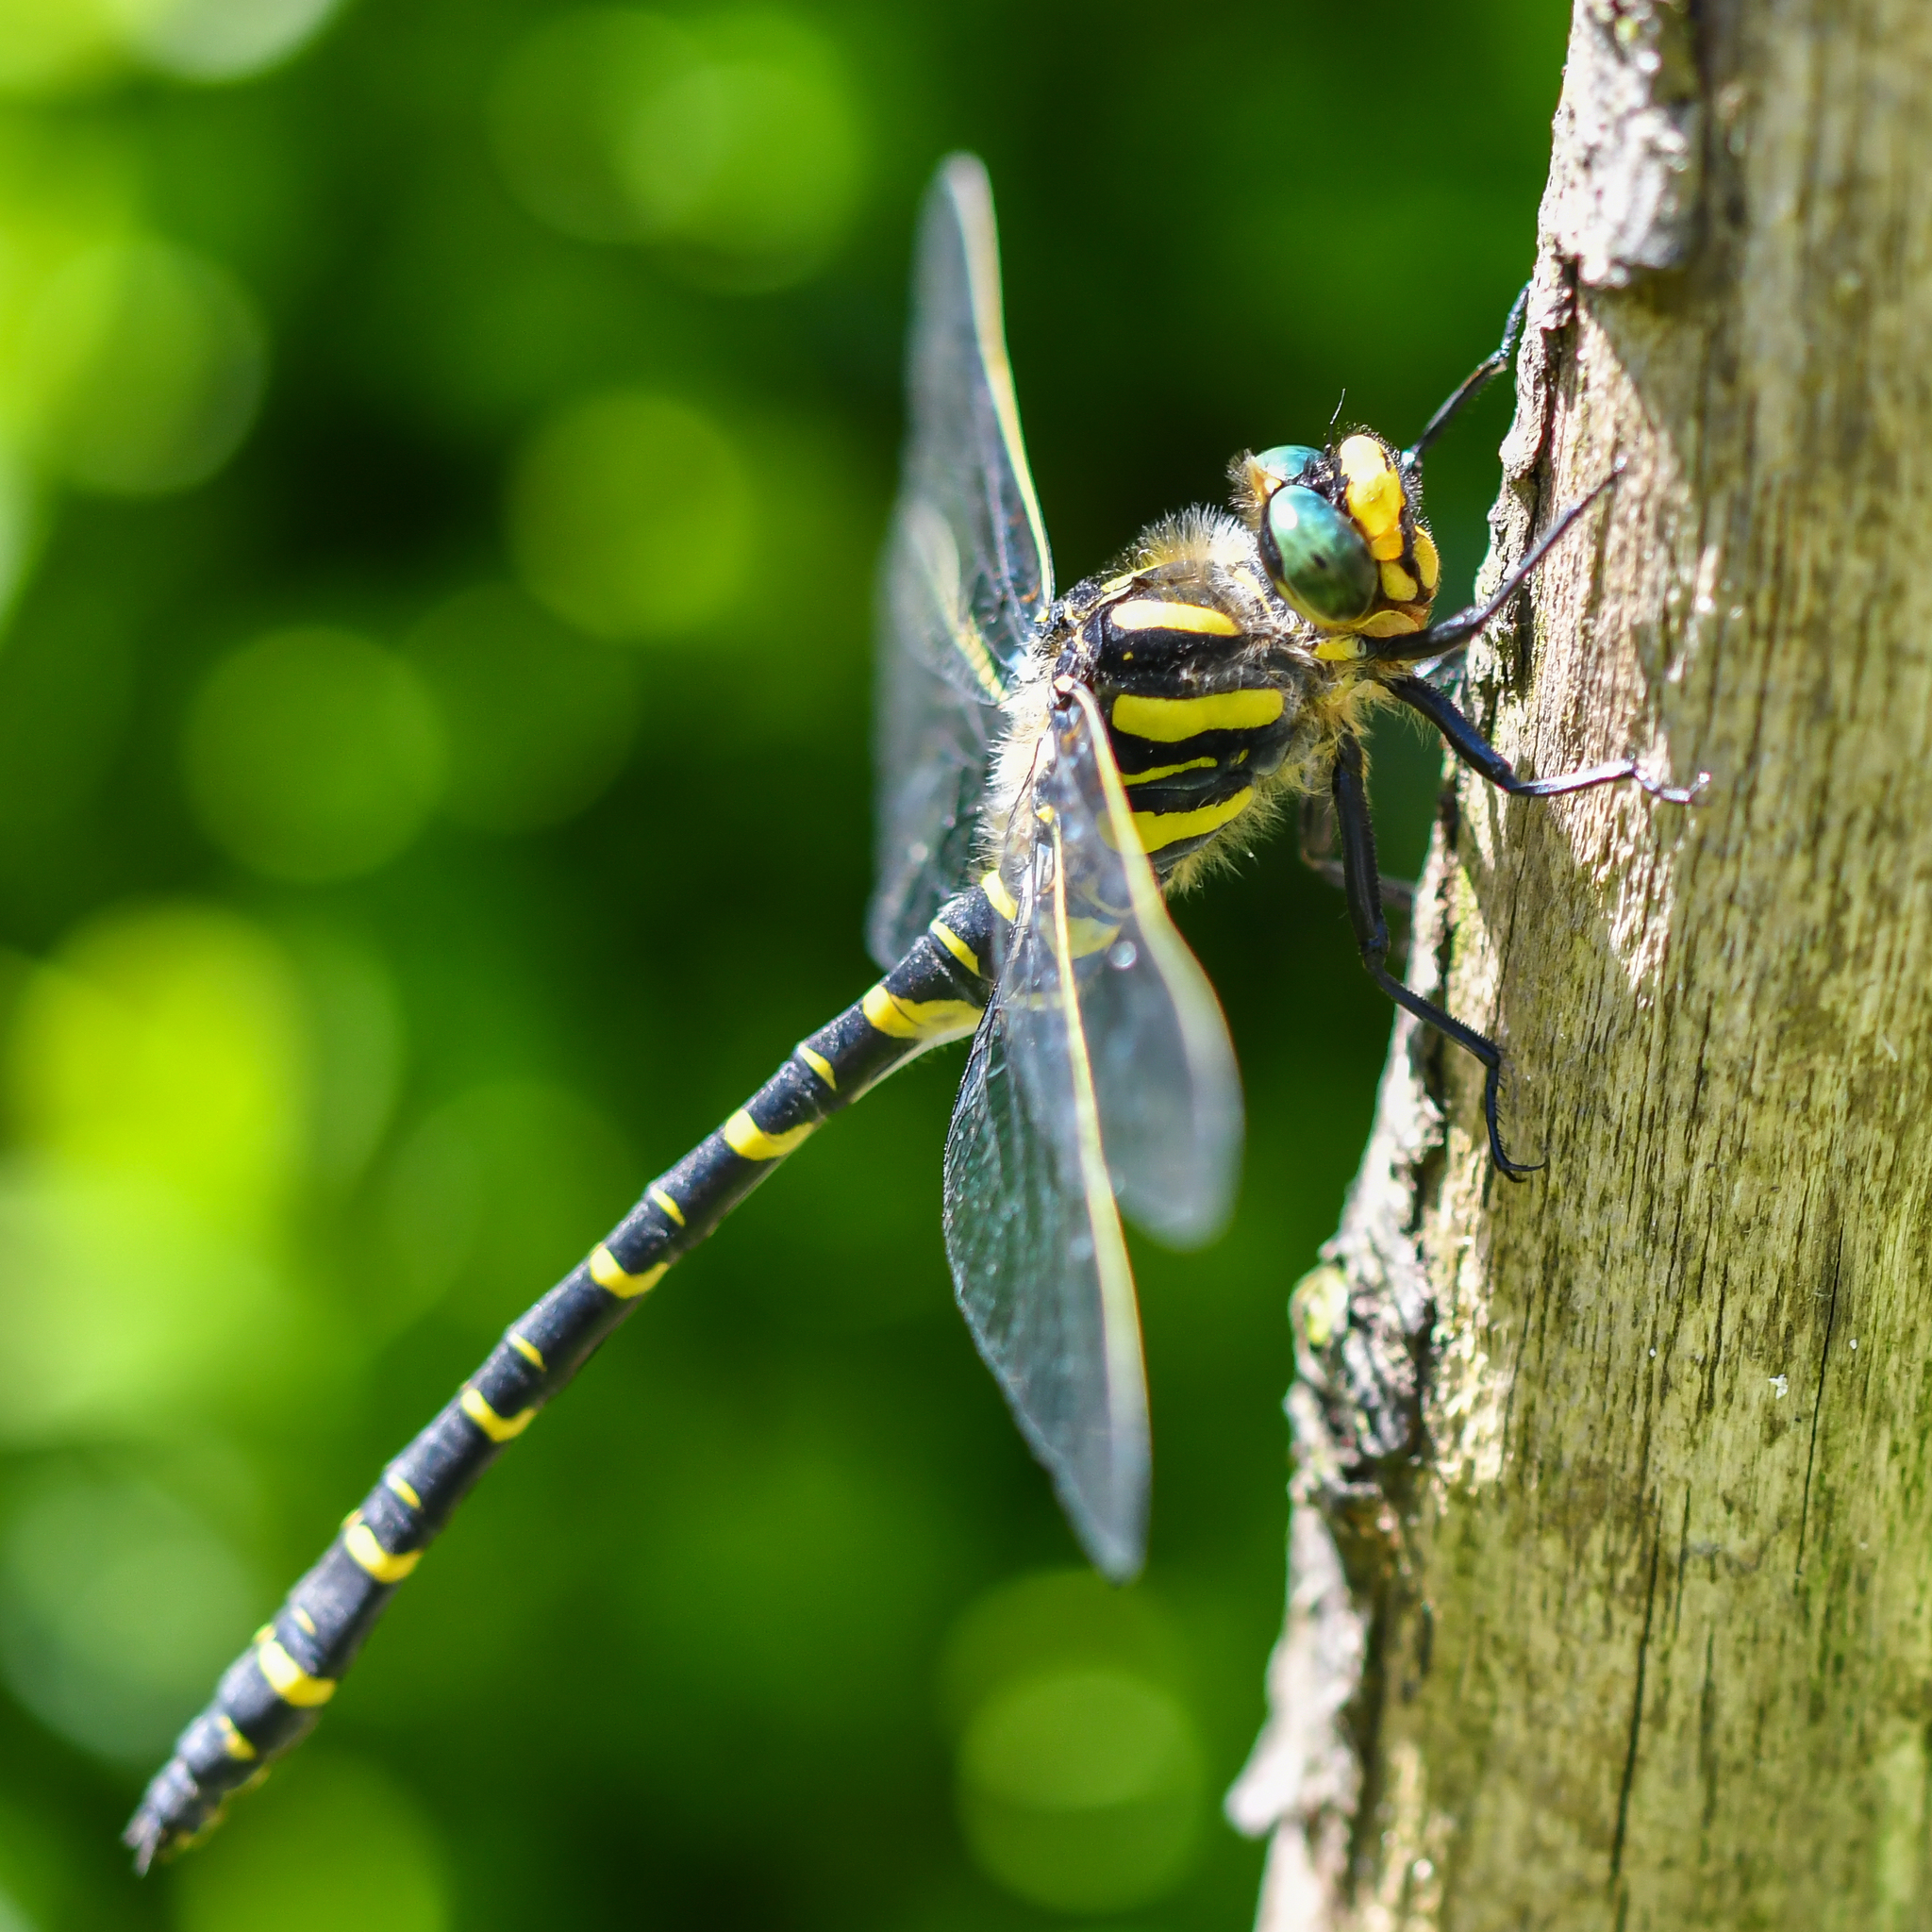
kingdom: Animalia
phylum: Arthropoda
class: Insecta
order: Odonata
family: Cordulegastridae
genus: Cordulegaster
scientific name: Cordulegaster boltonii
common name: Golden-ringed dragonfly
